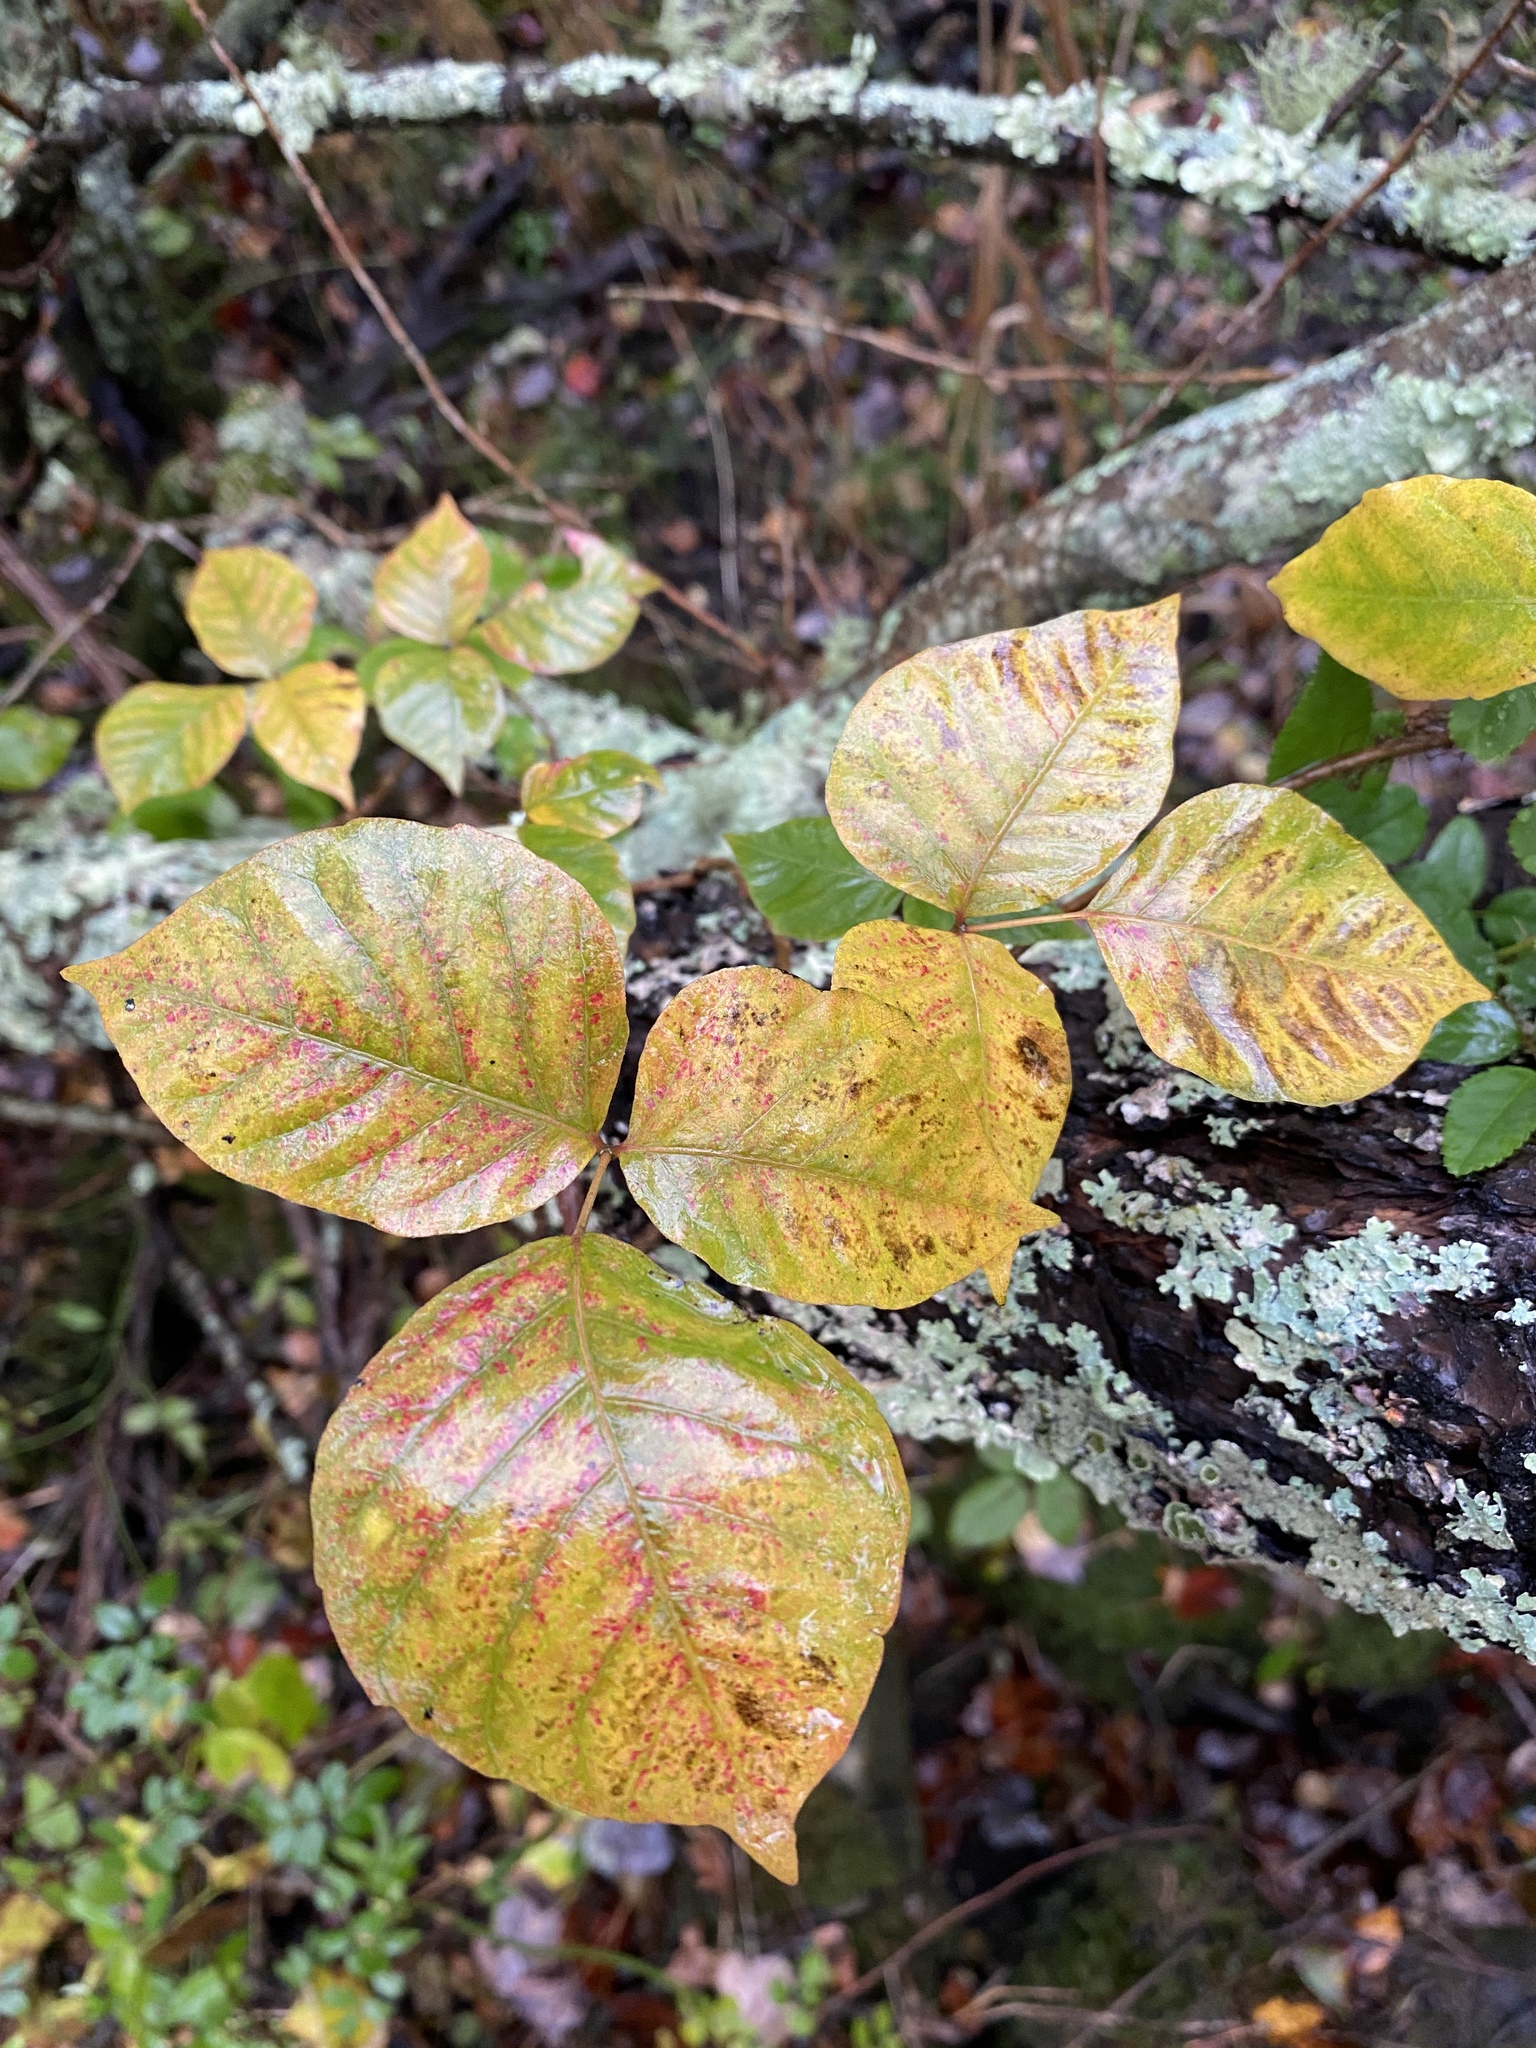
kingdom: Plantae
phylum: Tracheophyta
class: Magnoliopsida
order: Sapindales
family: Anacardiaceae
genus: Toxicodendron
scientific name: Toxicodendron radicans
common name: Poison ivy
